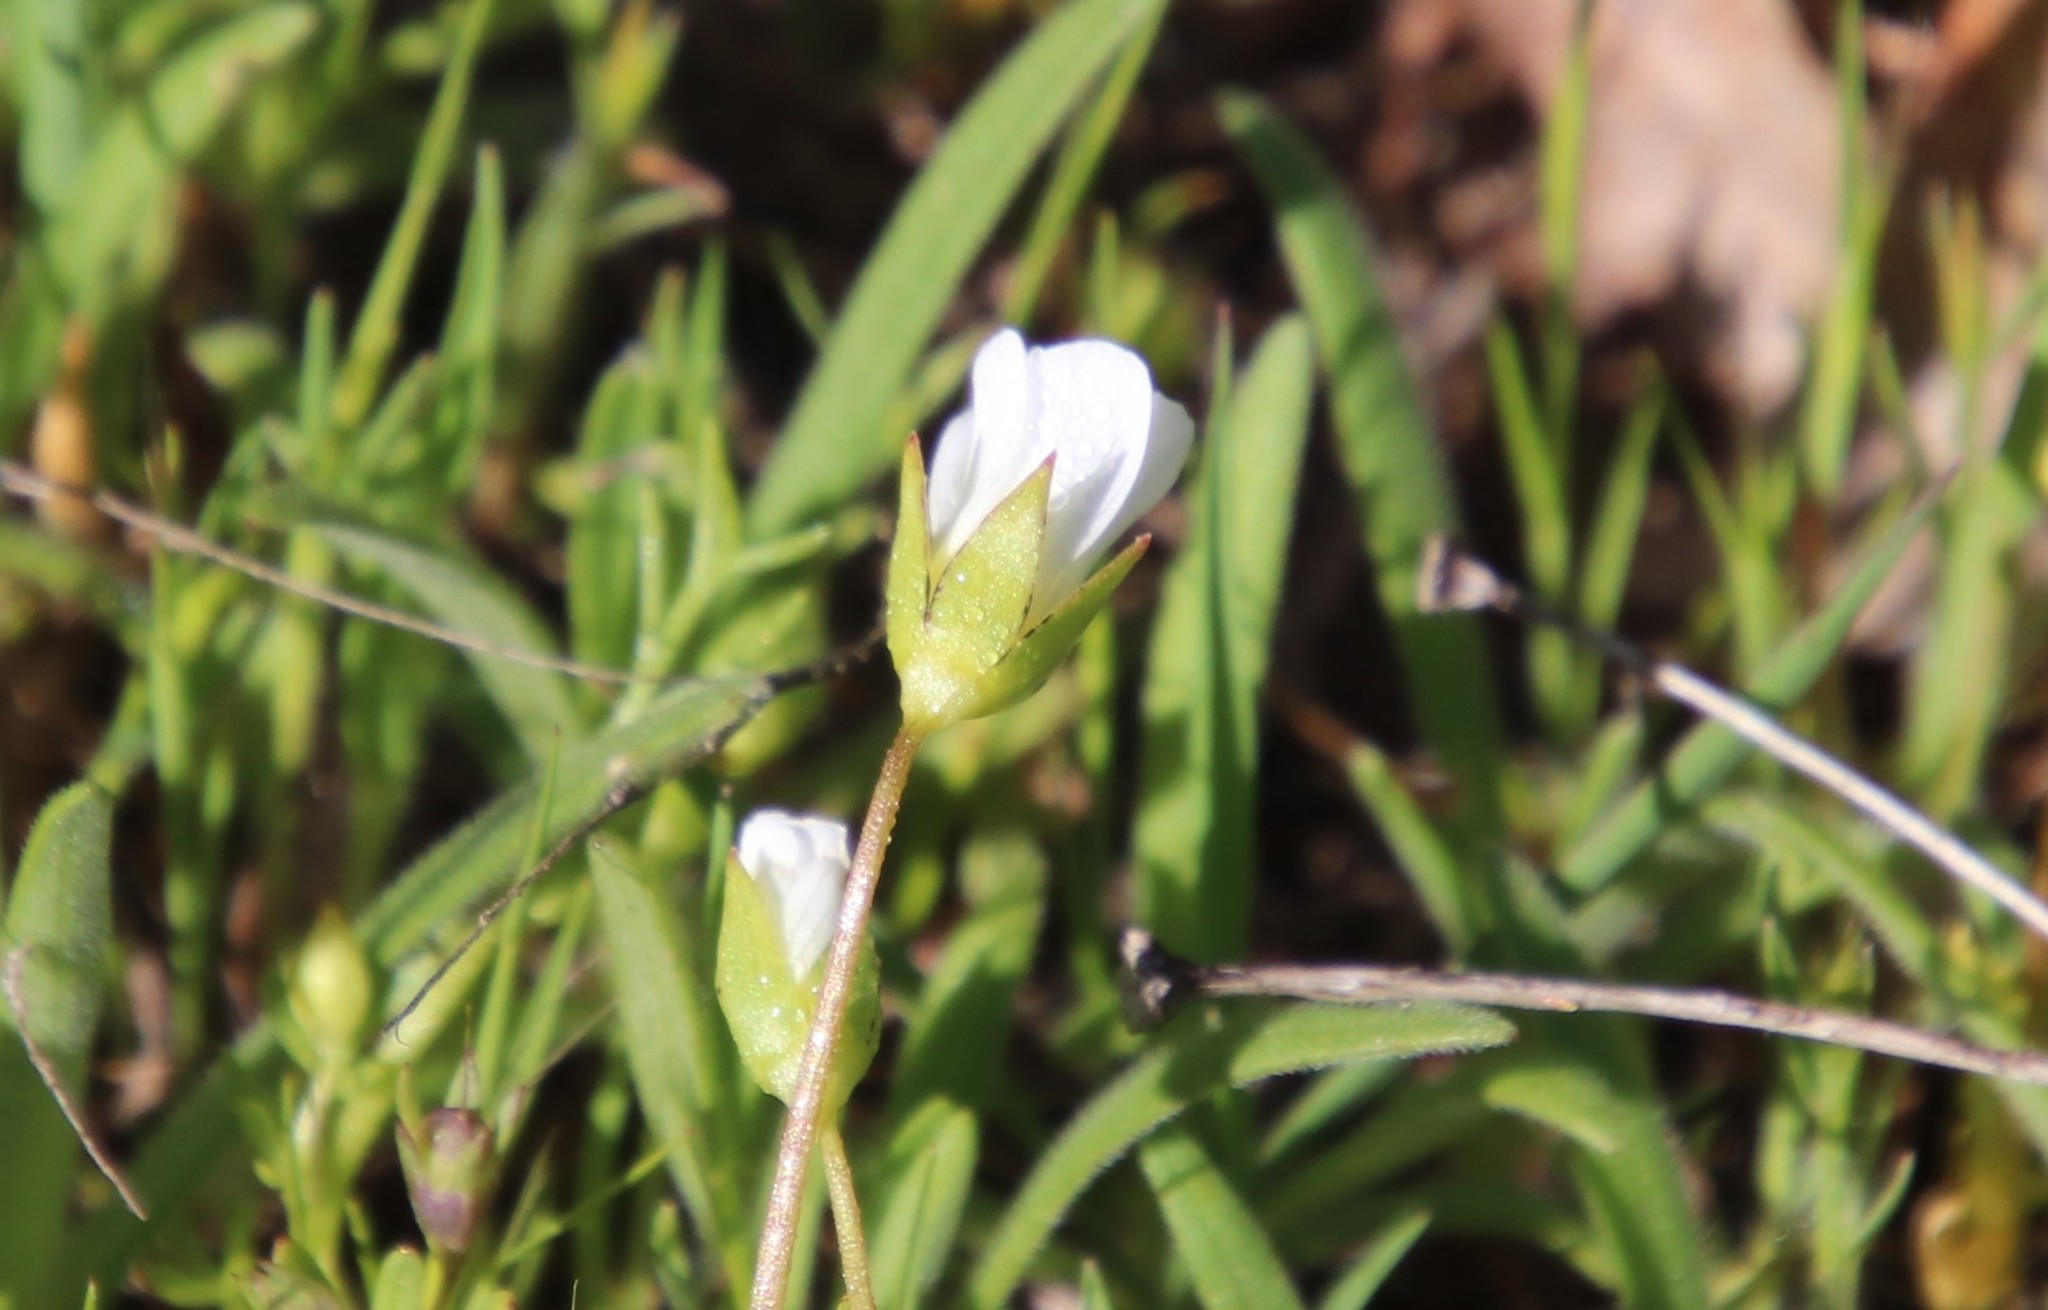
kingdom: Plantae
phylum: Tracheophyta
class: Magnoliopsida
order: Brassicales
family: Limnanthaceae
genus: Limnanthes
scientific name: Limnanthes alba
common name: Meadowfoam
